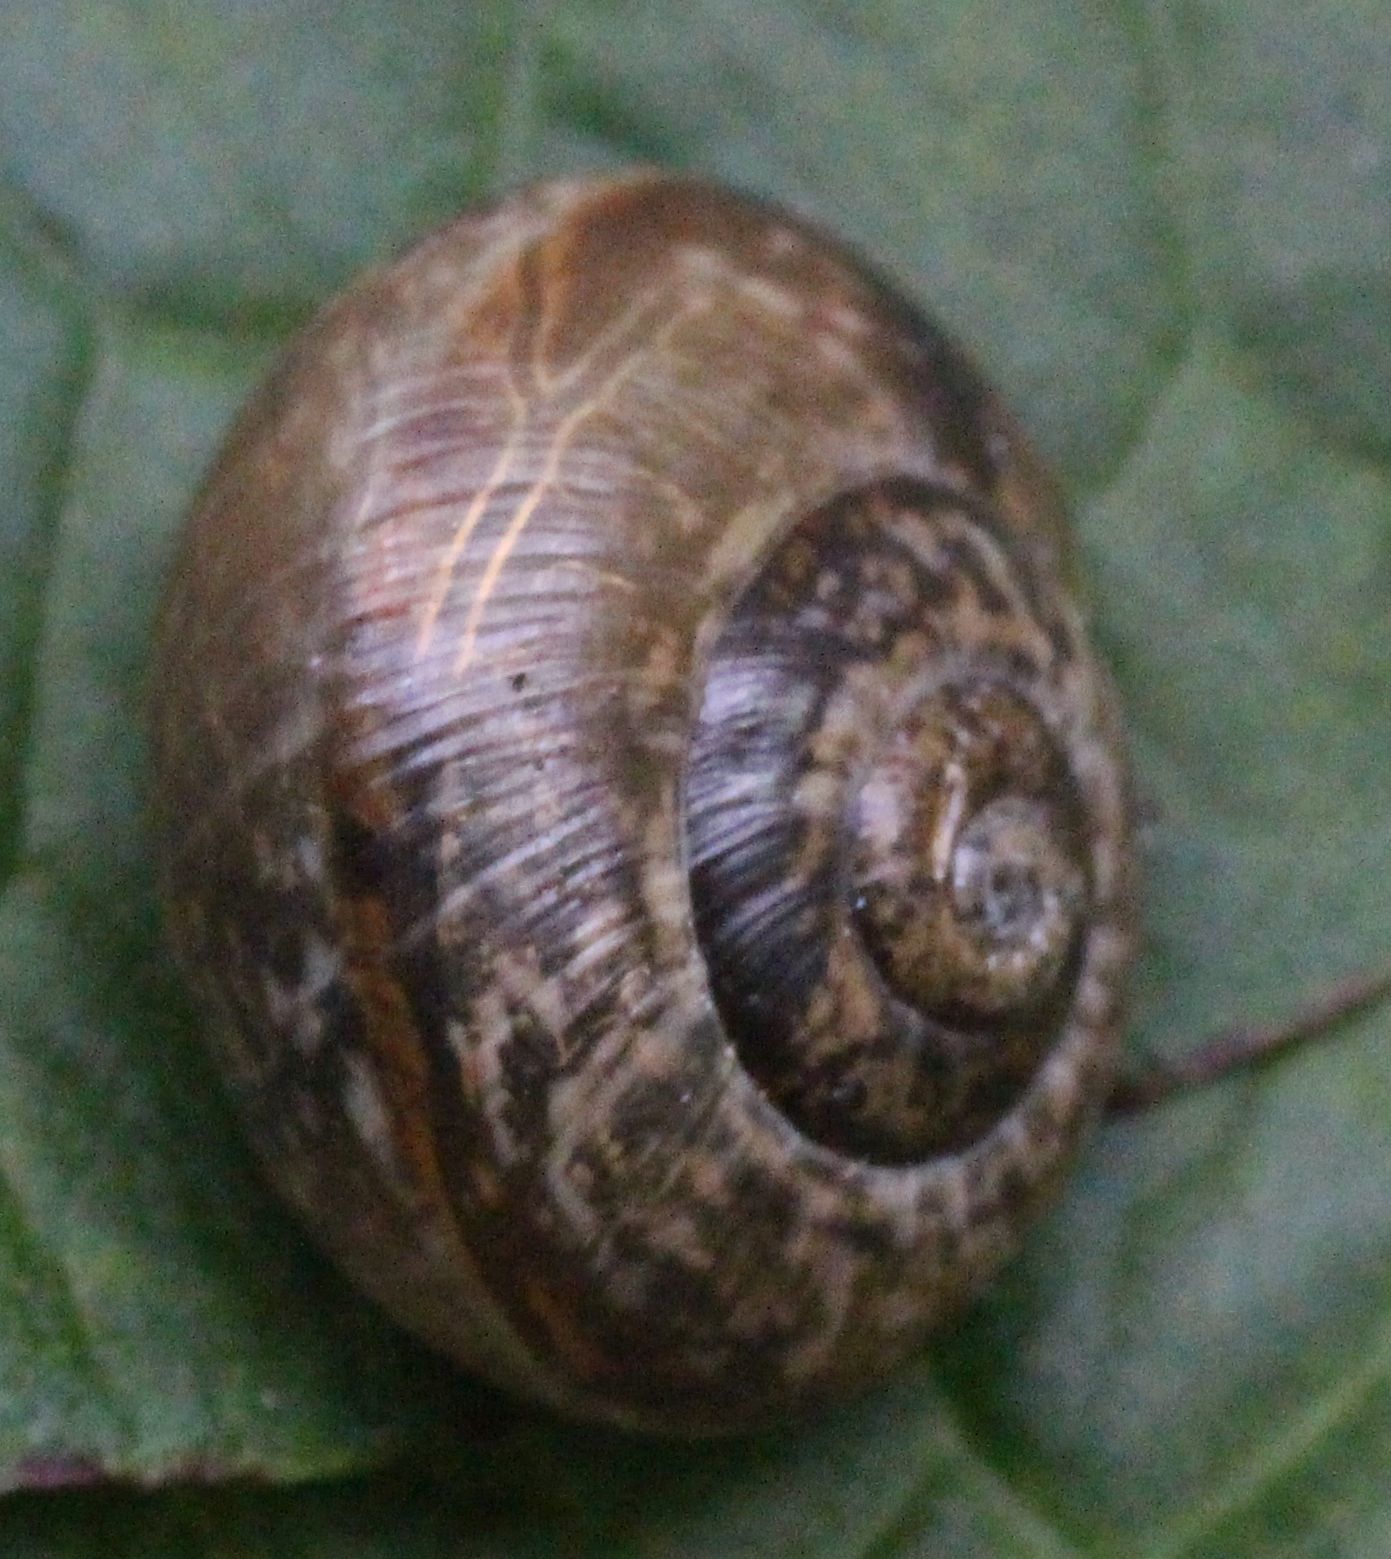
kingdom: Animalia
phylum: Mollusca
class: Gastropoda
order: Stylommatophora
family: Helicidae
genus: Arianta
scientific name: Arianta arbustorum
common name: Copse snail
